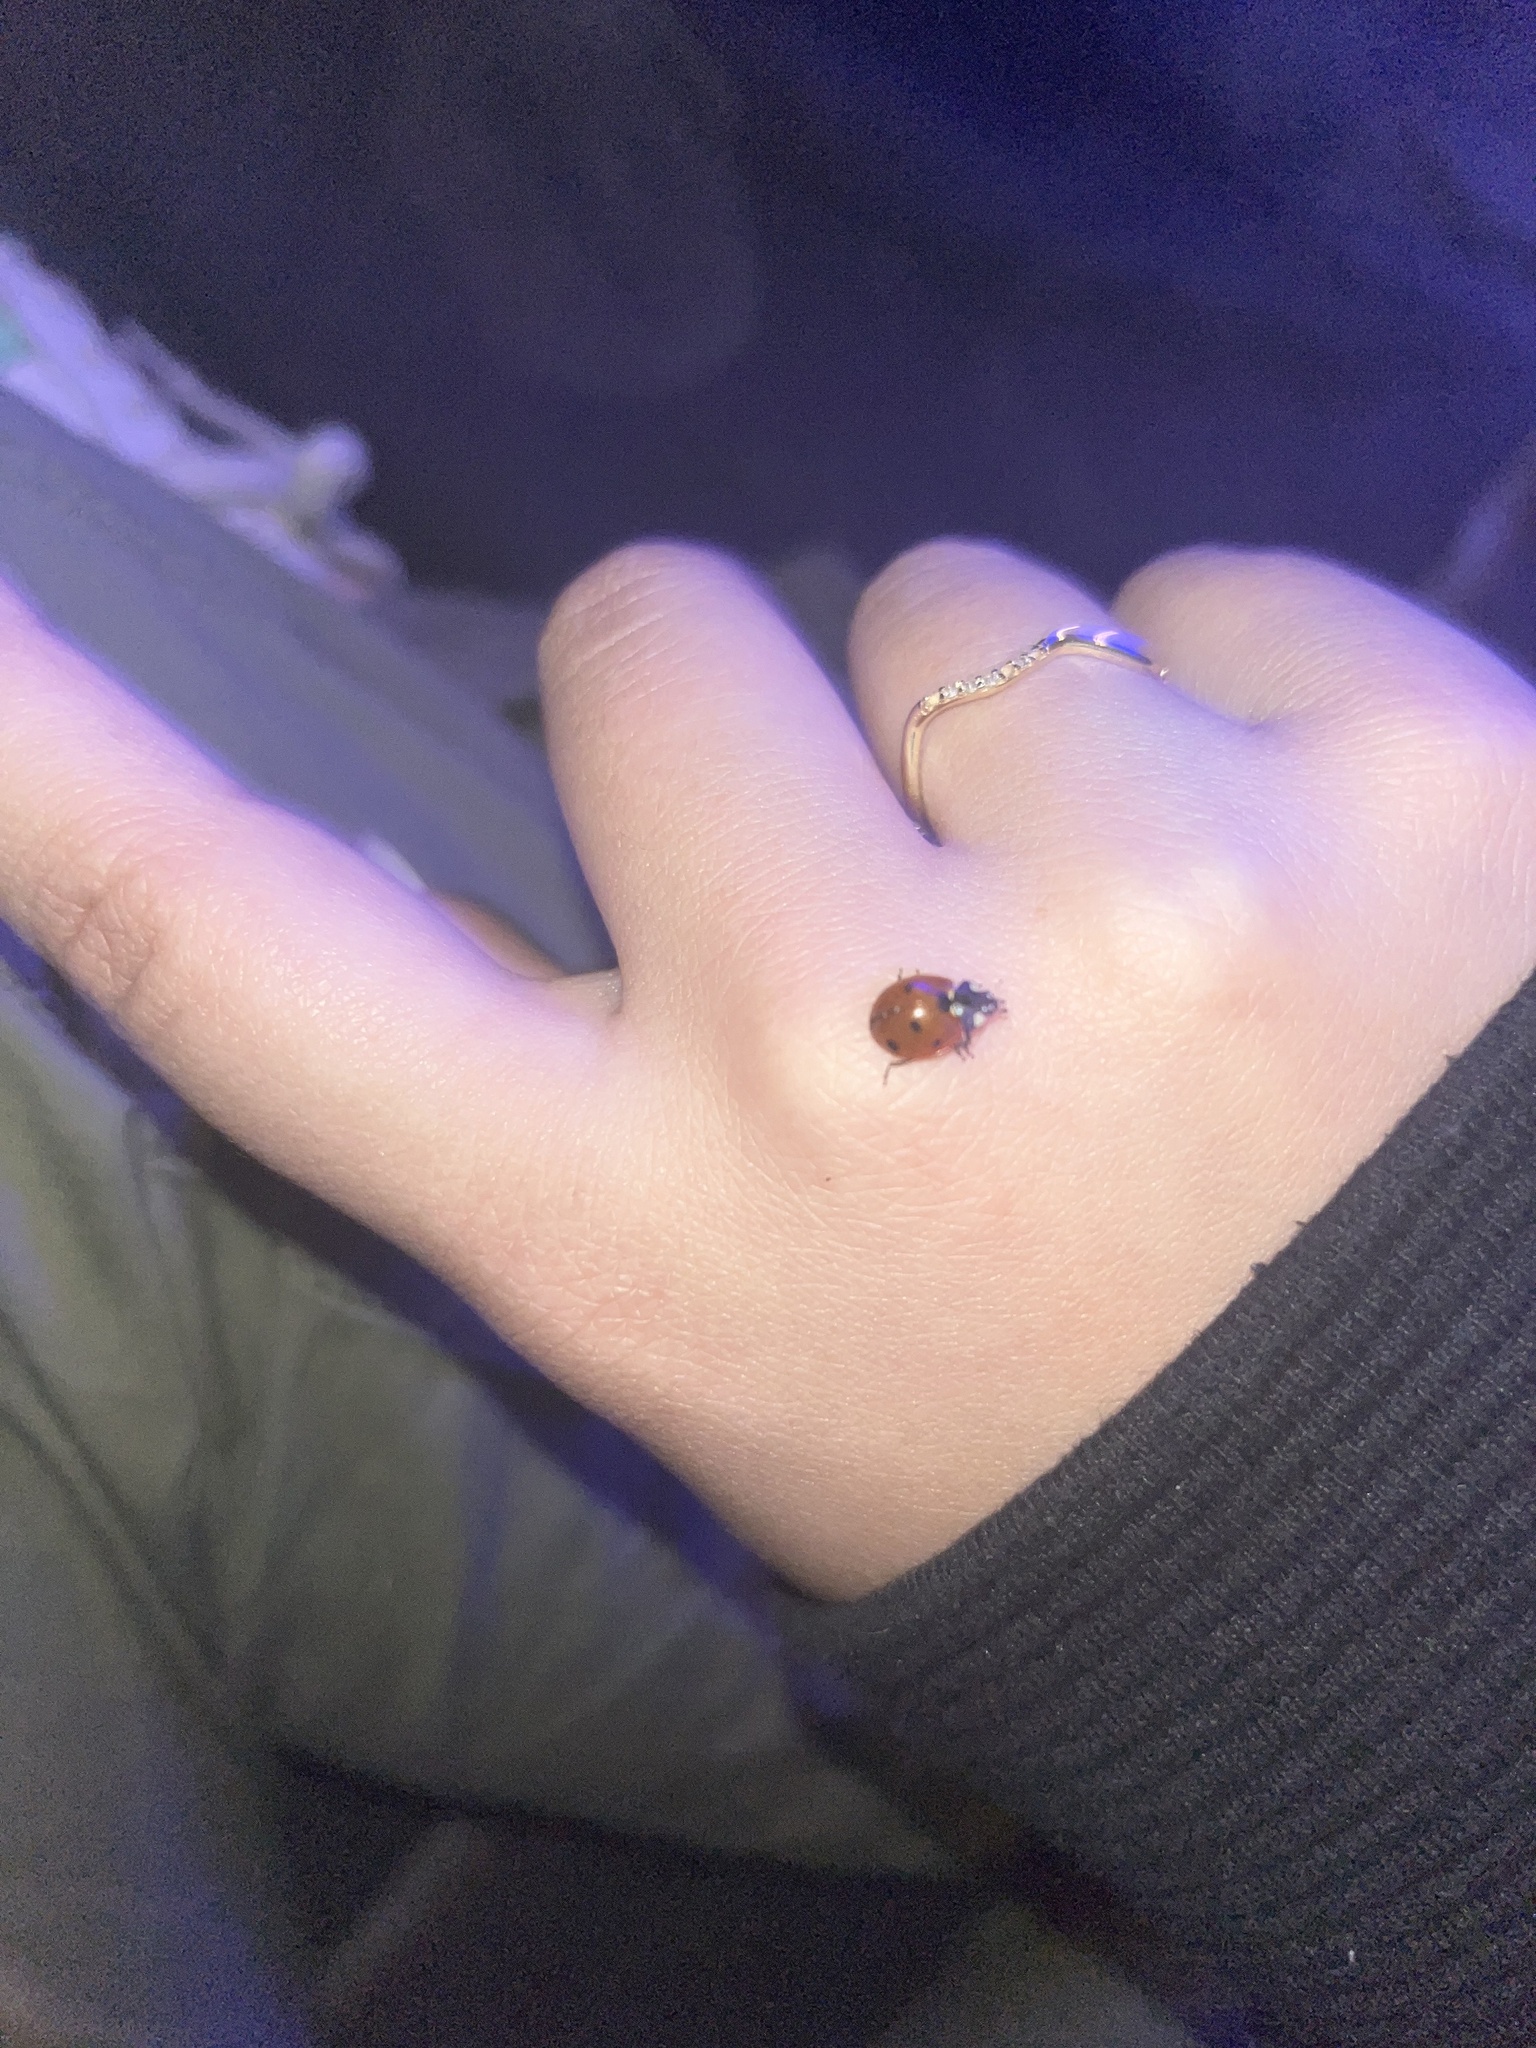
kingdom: Animalia
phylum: Arthropoda
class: Insecta
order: Coleoptera
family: Coccinellidae
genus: Coccinella
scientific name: Coccinella septempunctata
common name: Sevenspotted lady beetle
